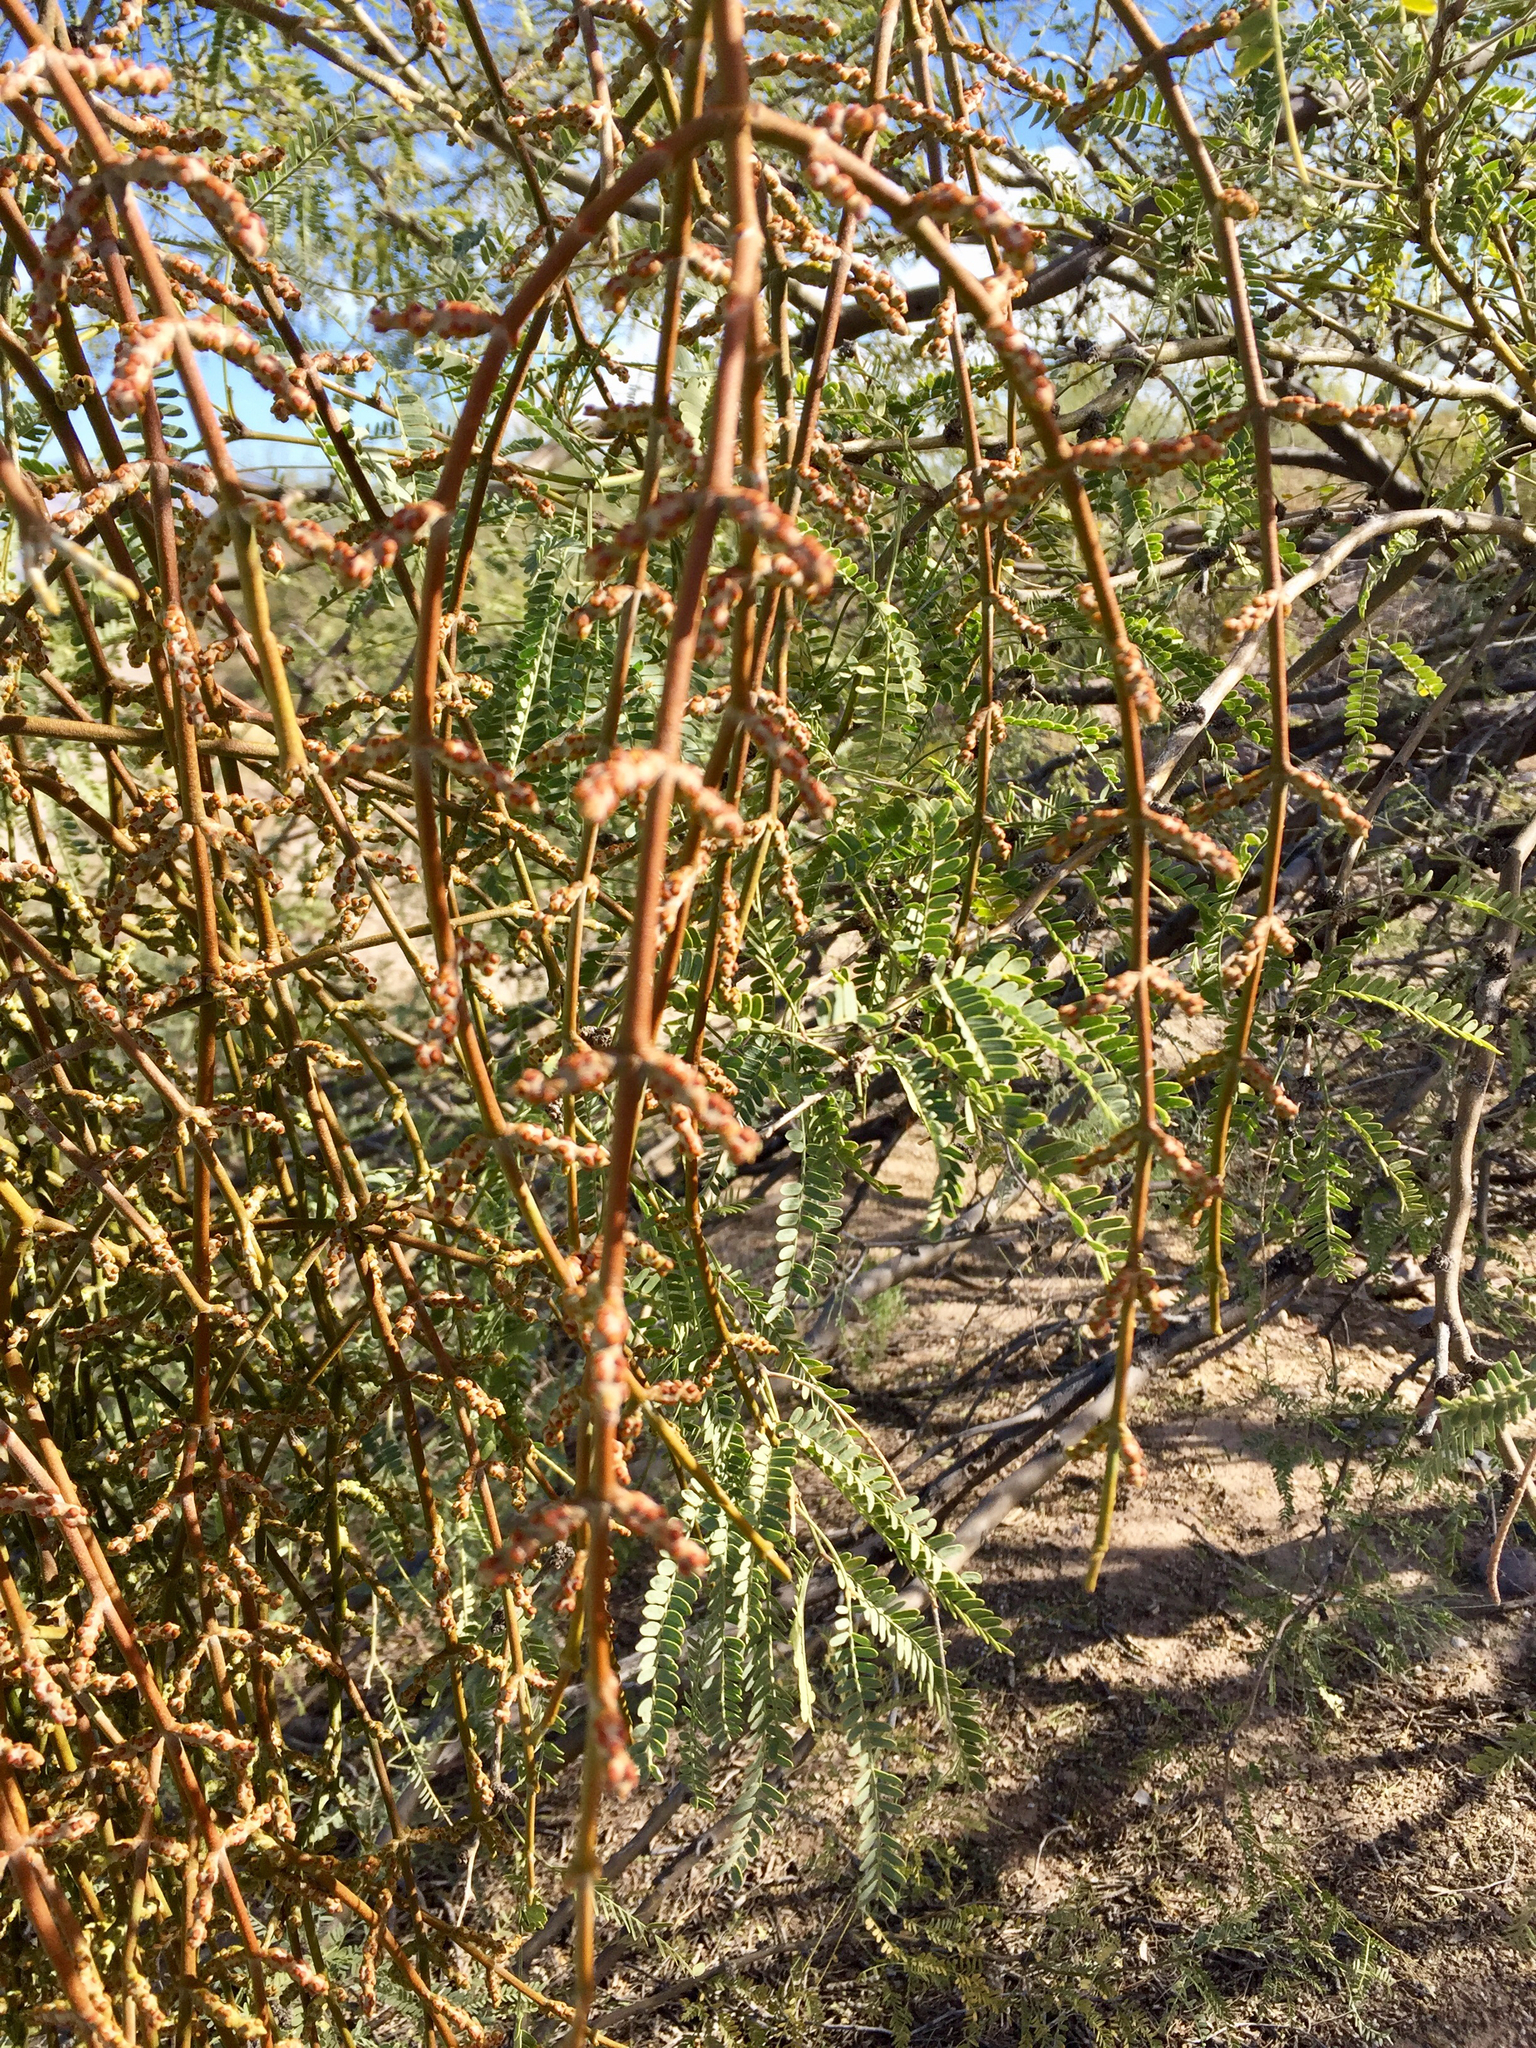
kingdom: Plantae
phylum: Tracheophyta
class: Magnoliopsida
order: Santalales
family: Viscaceae
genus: Phoradendron
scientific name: Phoradendron californicum
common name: Acacia mistletoe
